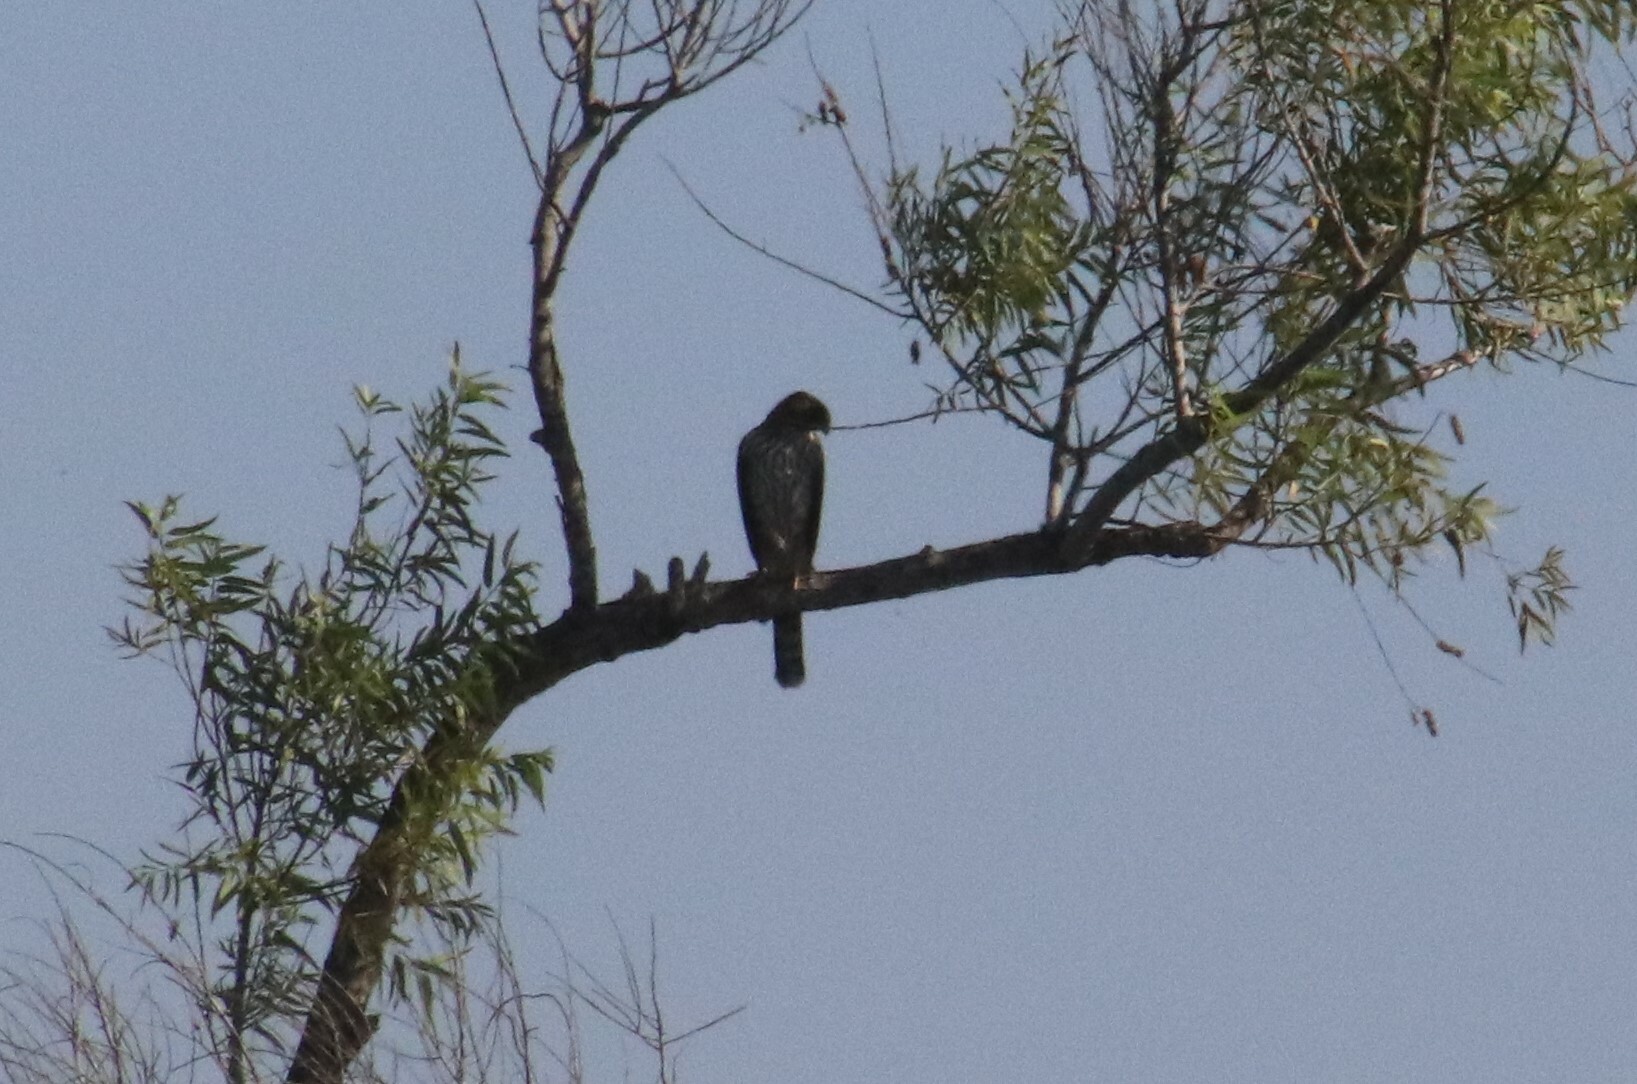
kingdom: Animalia
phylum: Chordata
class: Aves
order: Accipitriformes
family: Accipitridae
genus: Accipiter
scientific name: Accipiter cooperii
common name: Cooper's hawk
